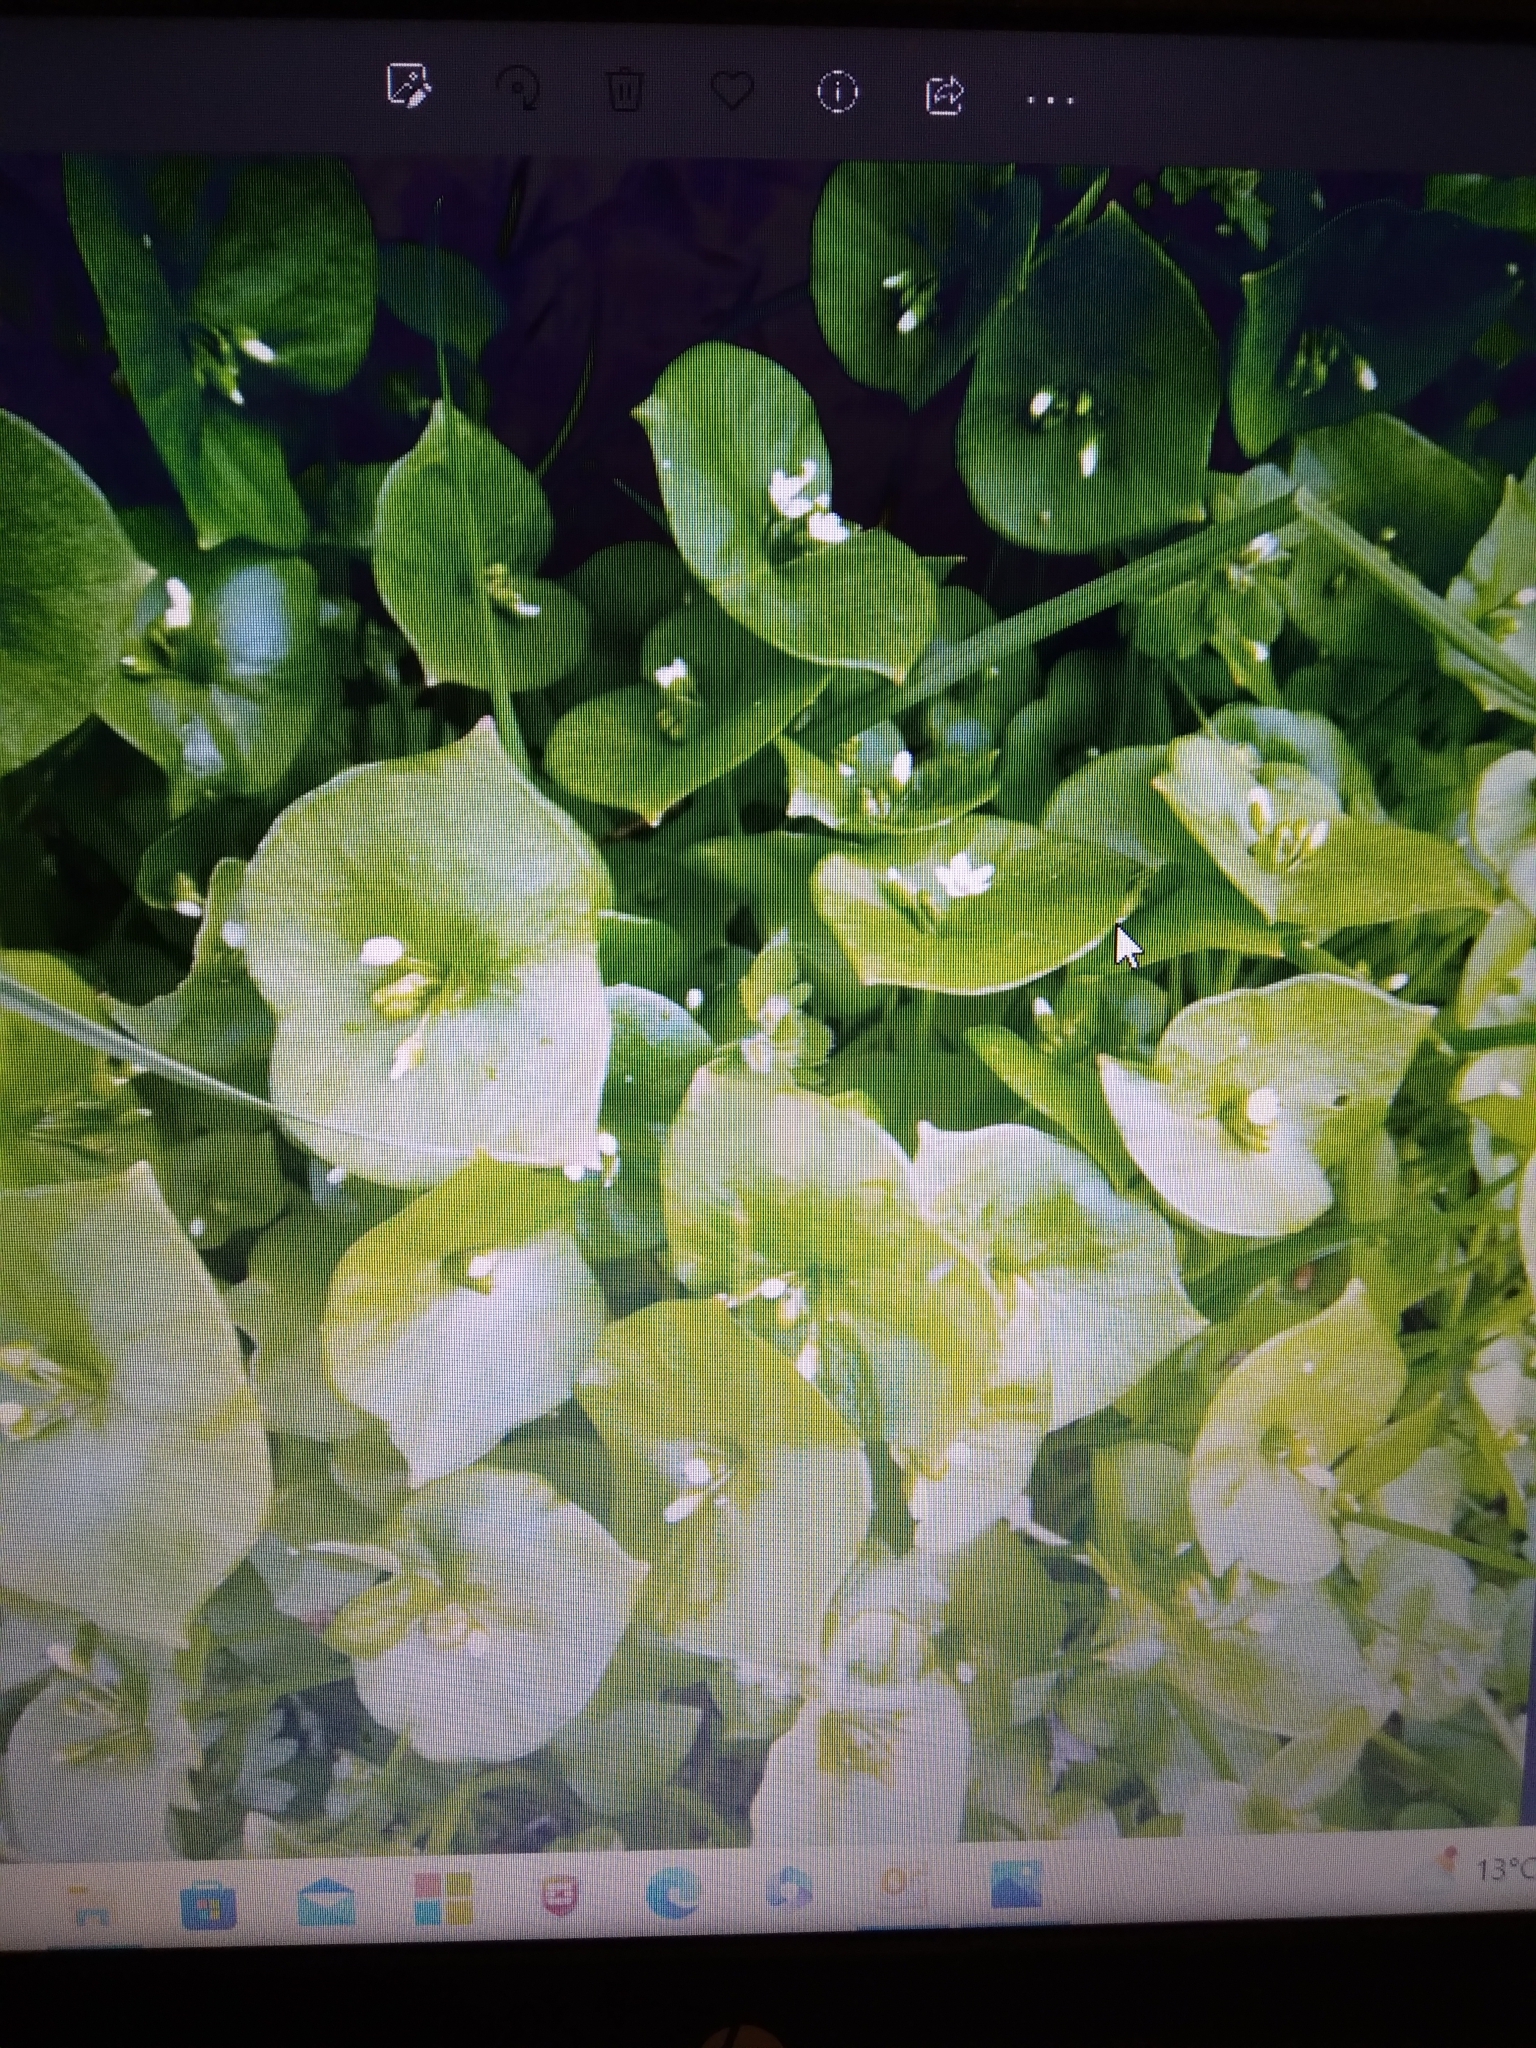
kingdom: Plantae
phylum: Tracheophyta
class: Magnoliopsida
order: Caryophyllales
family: Montiaceae
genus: Claytonia
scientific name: Claytonia perfoliata
